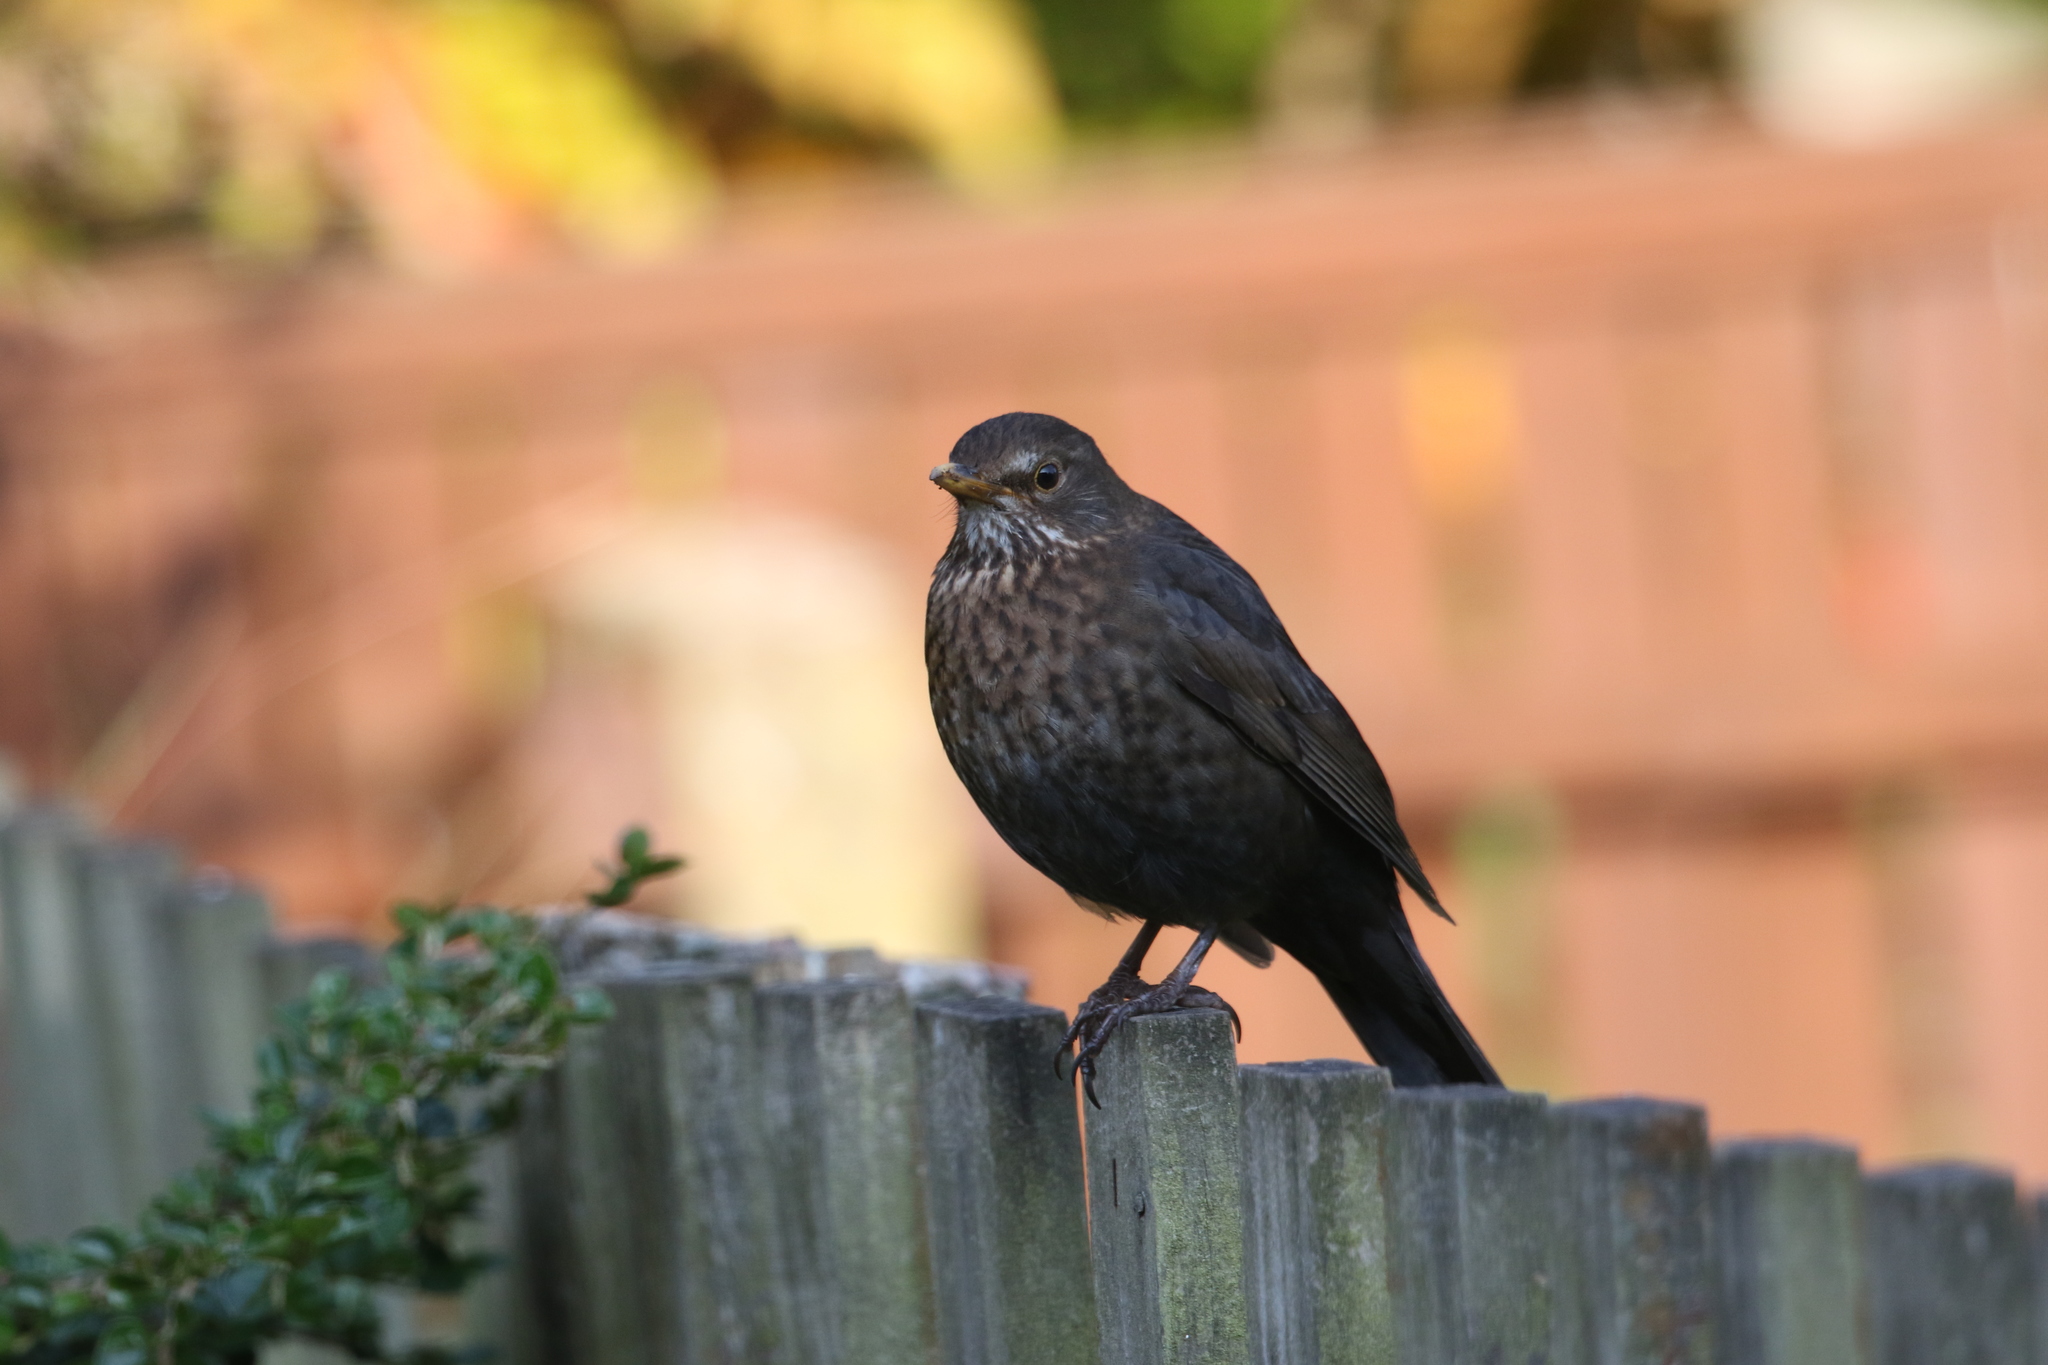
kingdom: Animalia
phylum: Chordata
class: Aves
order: Passeriformes
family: Turdidae
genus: Turdus
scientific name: Turdus merula
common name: Common blackbird
